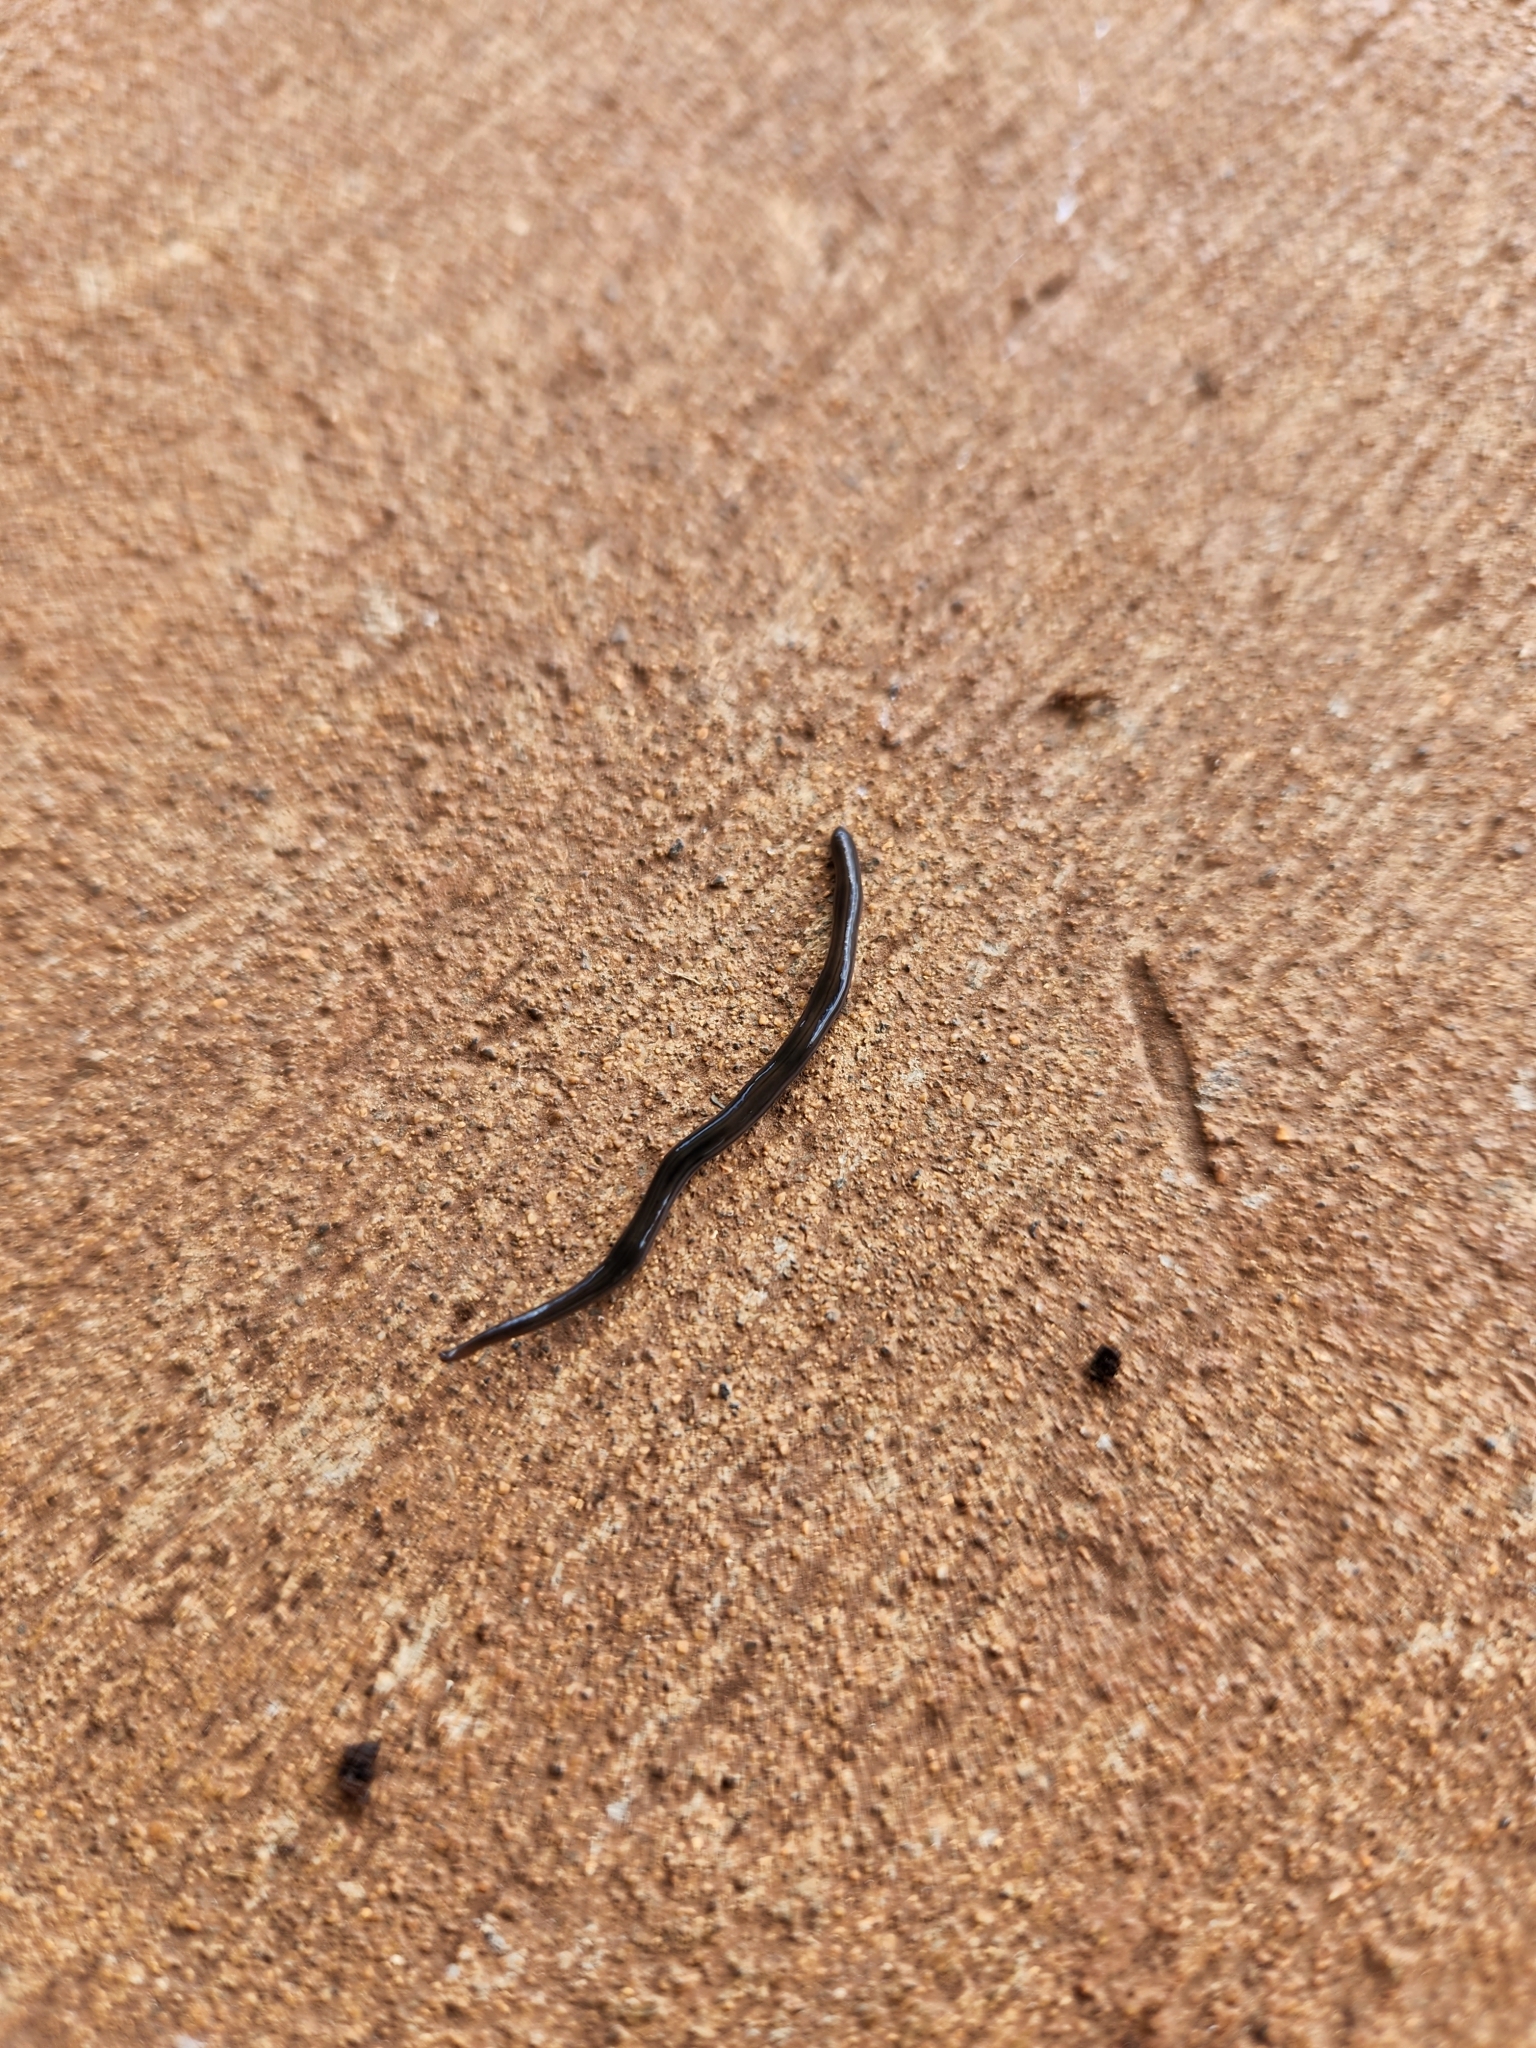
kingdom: Animalia
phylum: Platyhelminthes
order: Tricladida
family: Geoplanidae
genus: Endeavouria
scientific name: Endeavouria septemlineata
